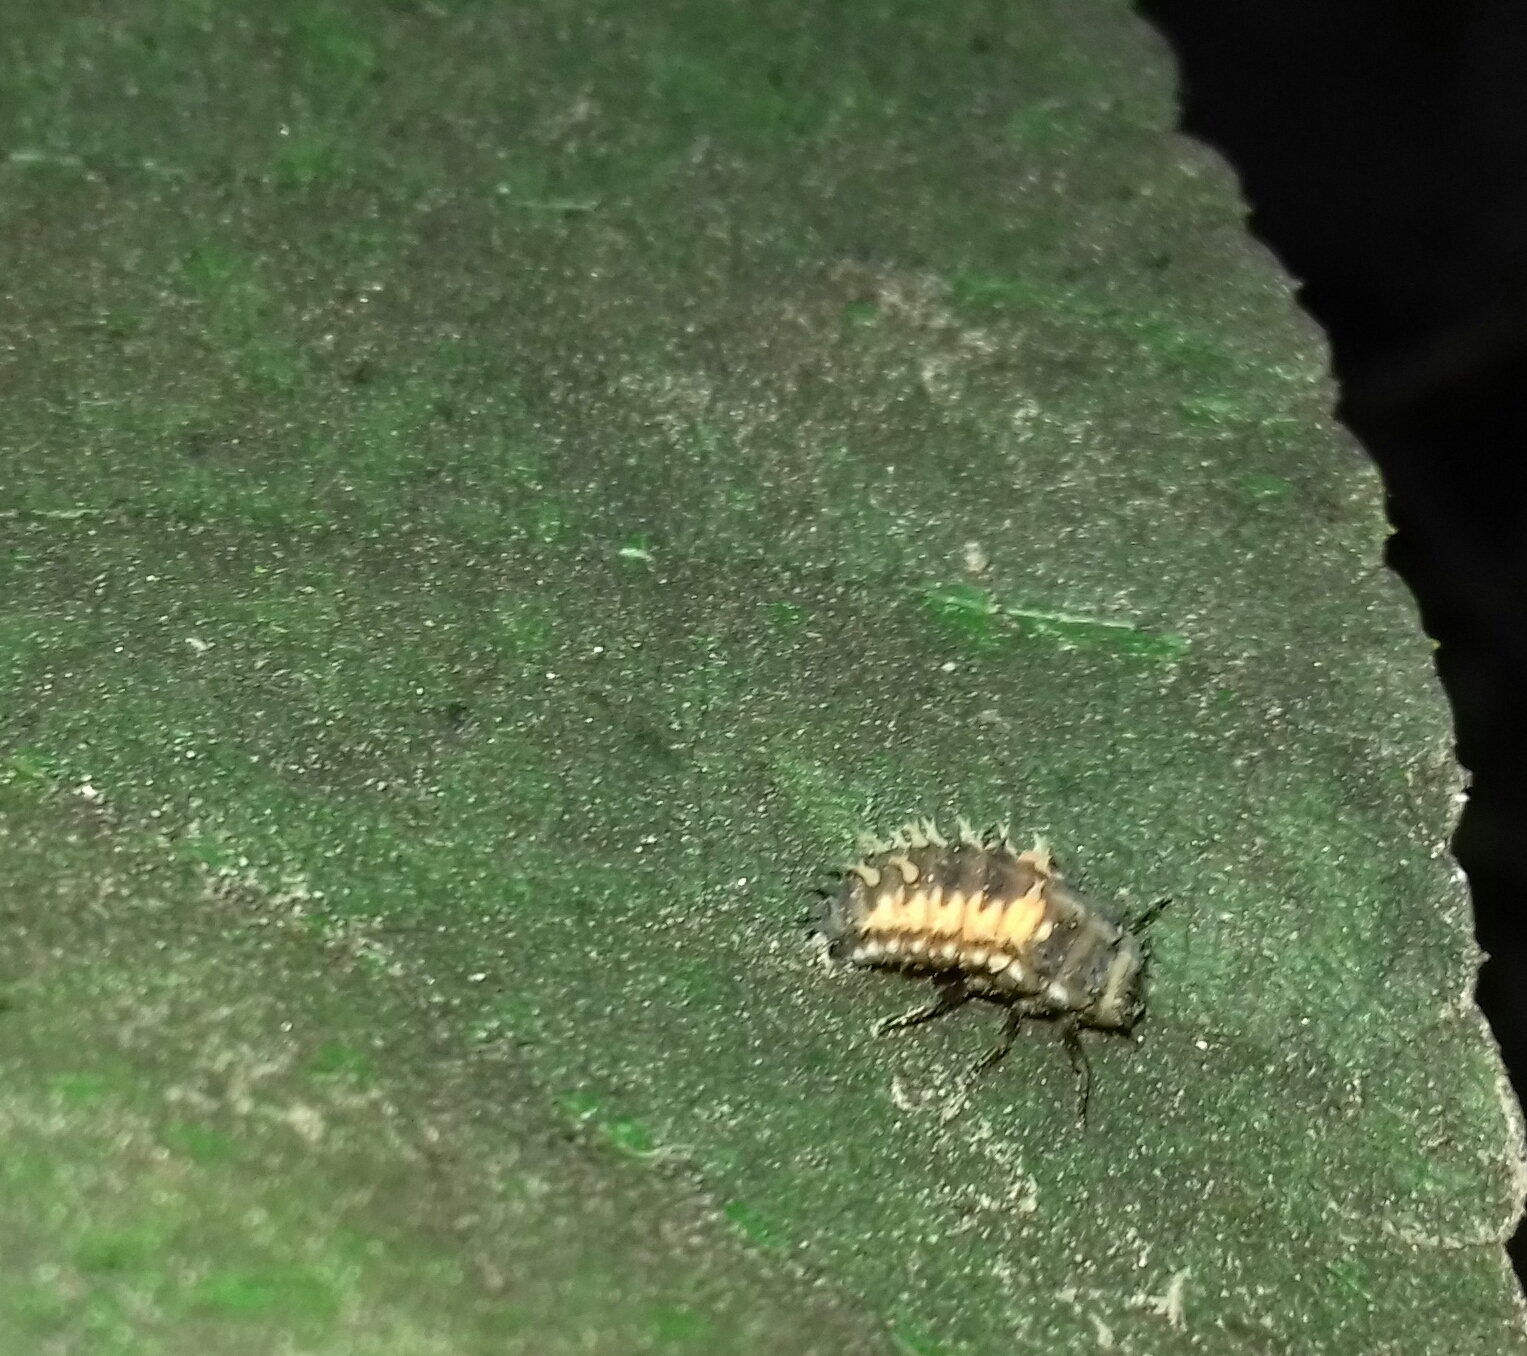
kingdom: Animalia
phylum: Arthropoda
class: Insecta
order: Coleoptera
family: Coccinellidae
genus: Harmonia
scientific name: Harmonia axyridis
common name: Harlequin ladybird
